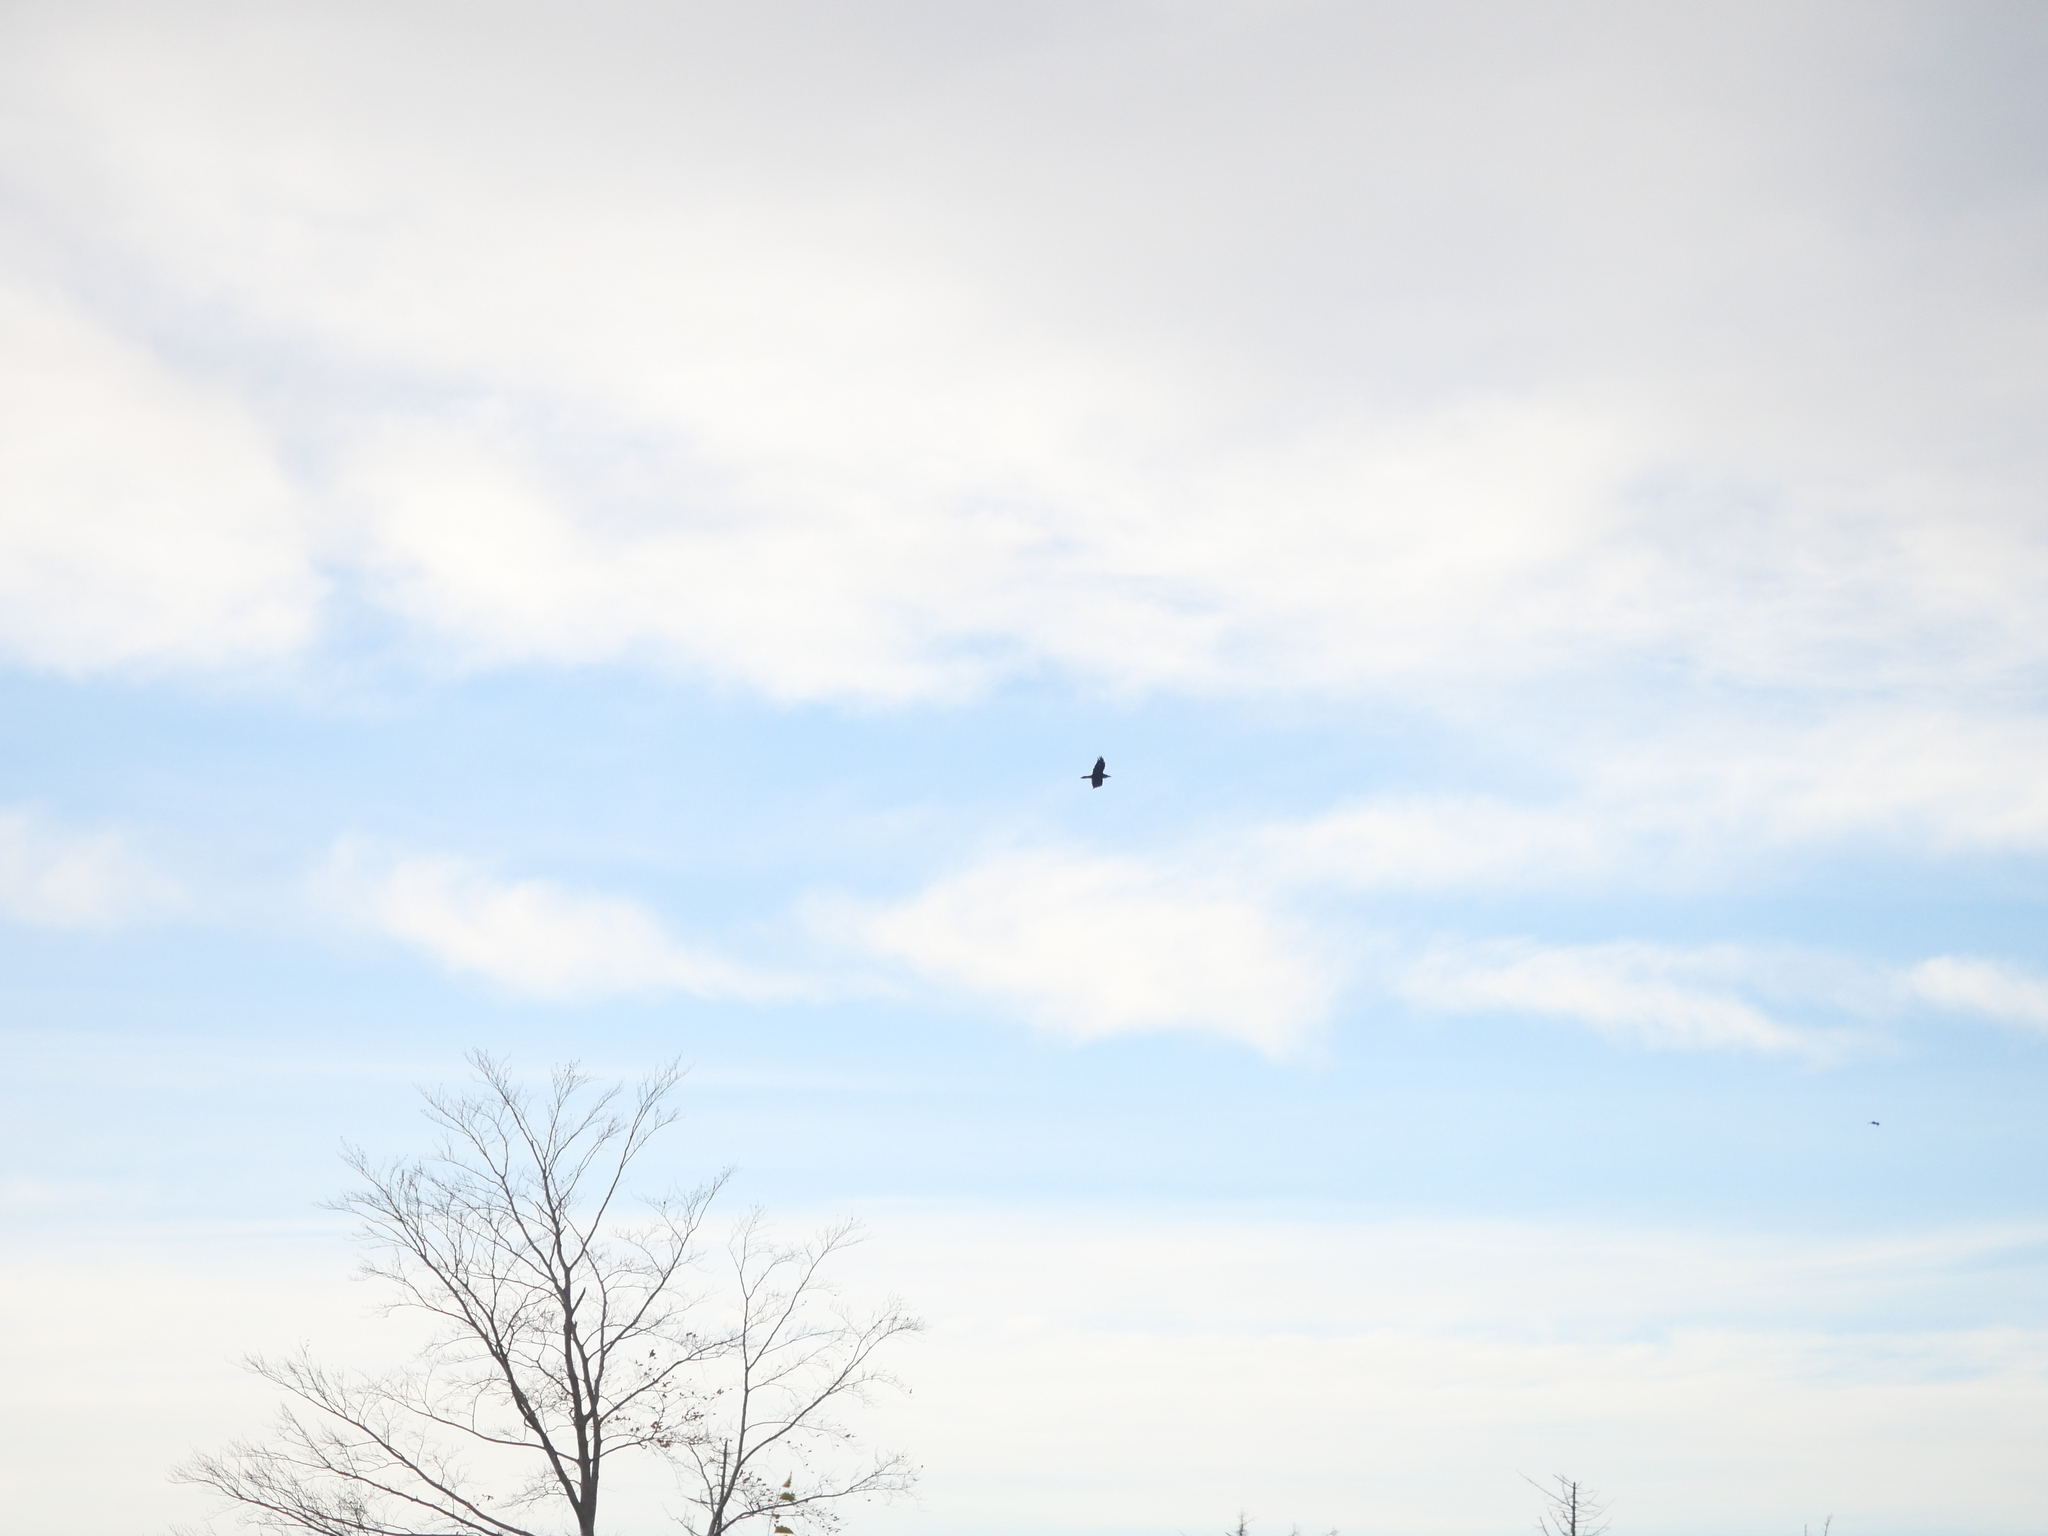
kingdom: Animalia
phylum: Chordata
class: Aves
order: Passeriformes
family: Corvidae
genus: Corvus
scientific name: Corvus corax
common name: Common raven
